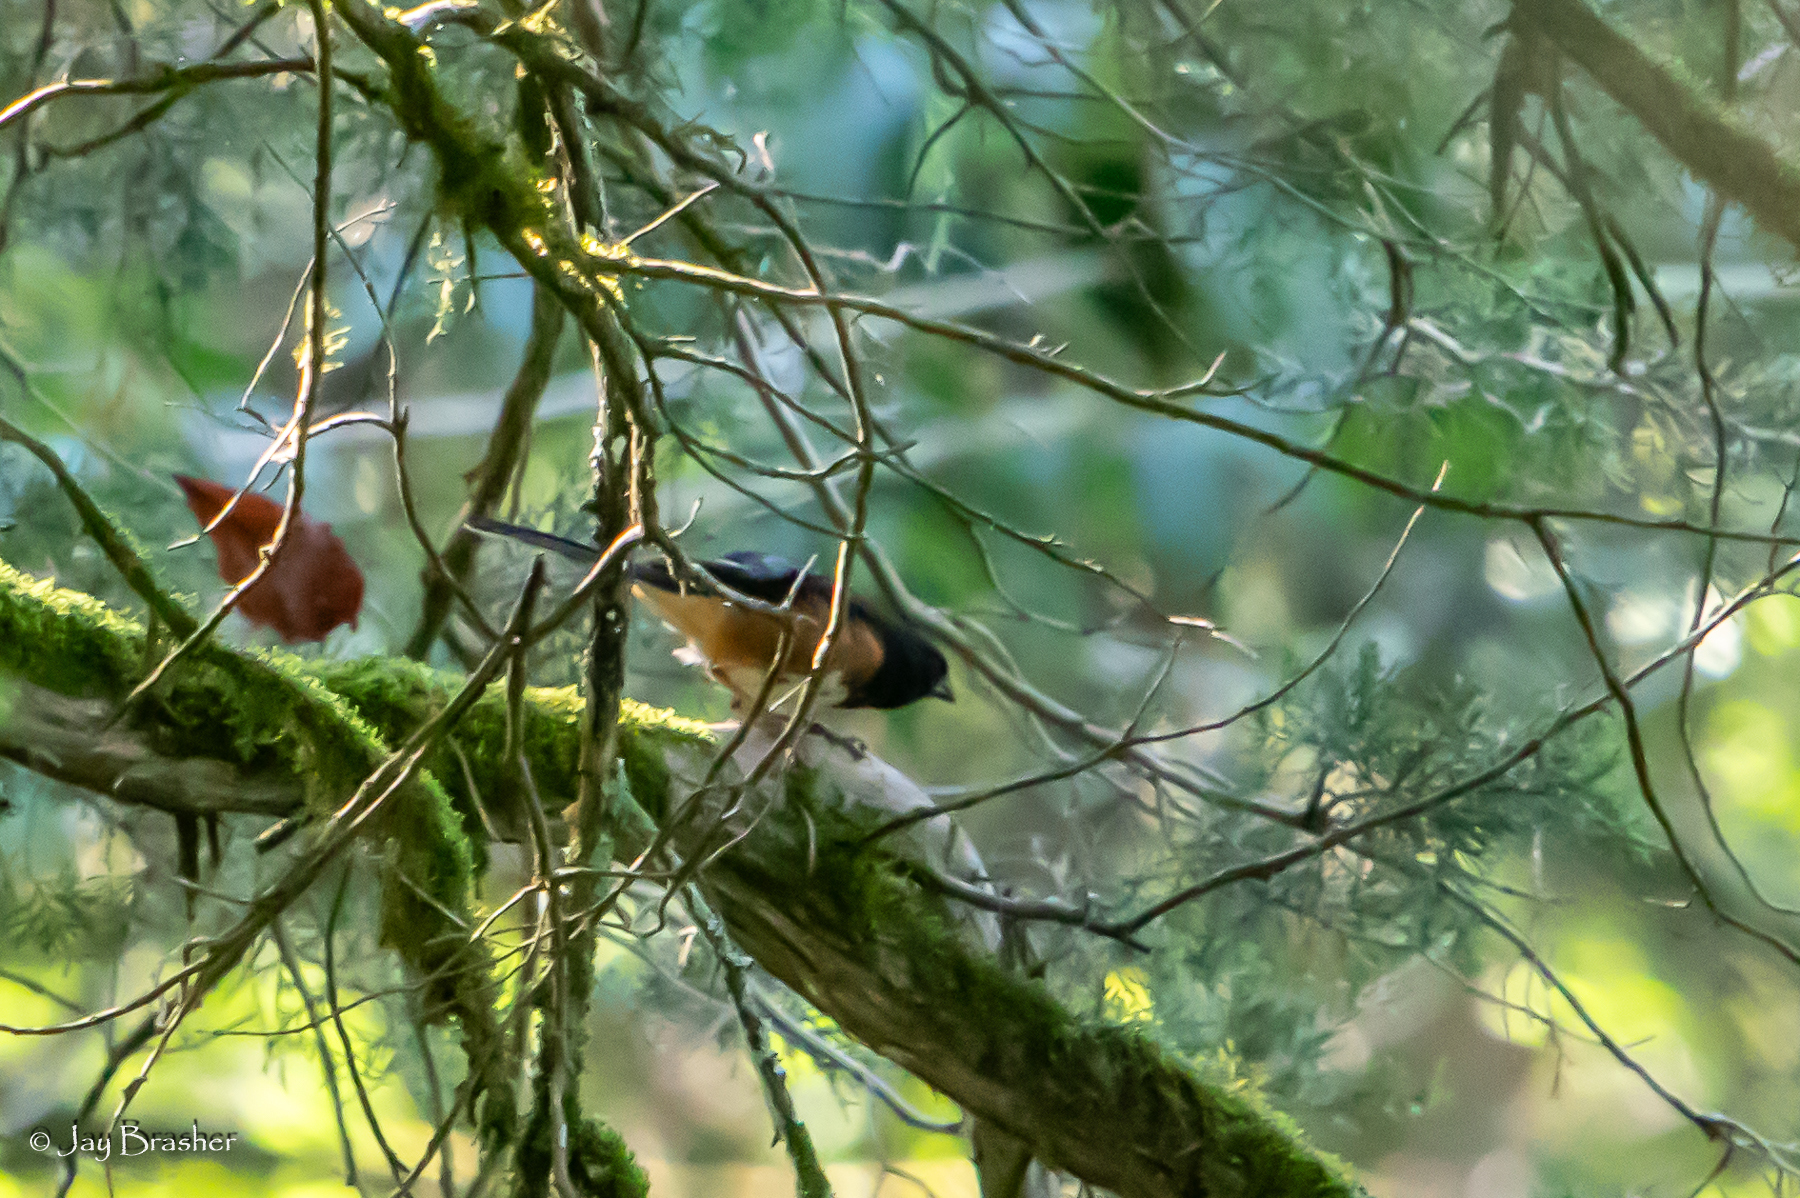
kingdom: Animalia
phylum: Chordata
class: Aves
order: Passeriformes
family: Passerellidae
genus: Pipilo
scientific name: Pipilo erythrophthalmus
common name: Eastern towhee
